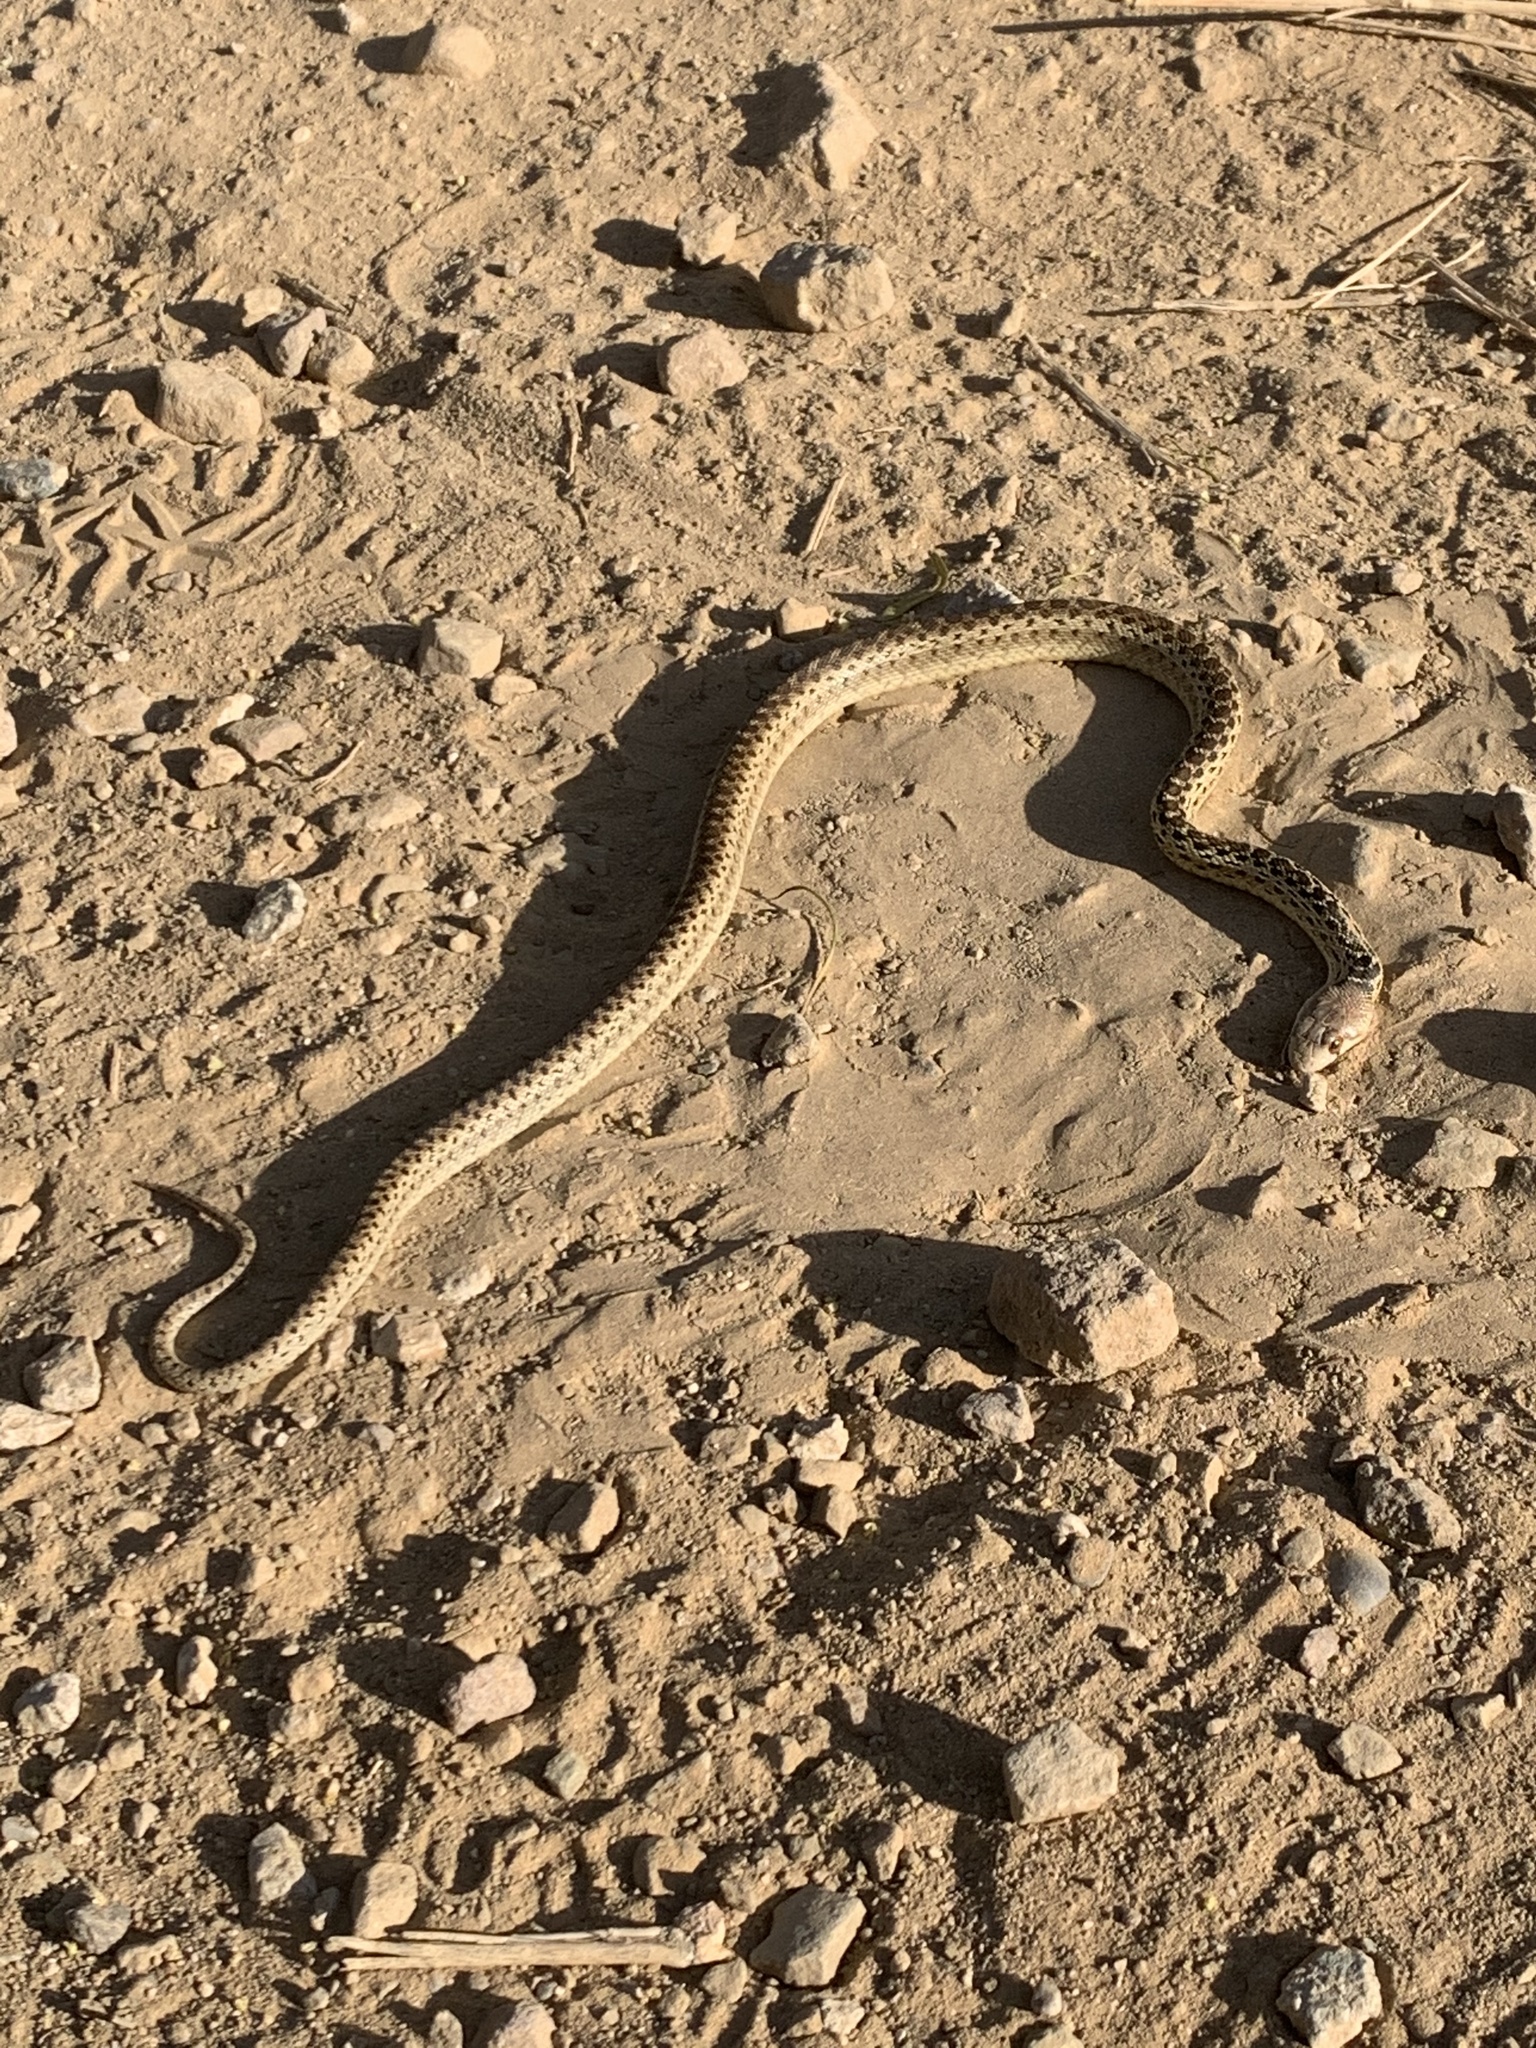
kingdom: Animalia
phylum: Chordata
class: Squamata
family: Colubridae
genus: Pituophis
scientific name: Pituophis catenifer
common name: Gopher snake
